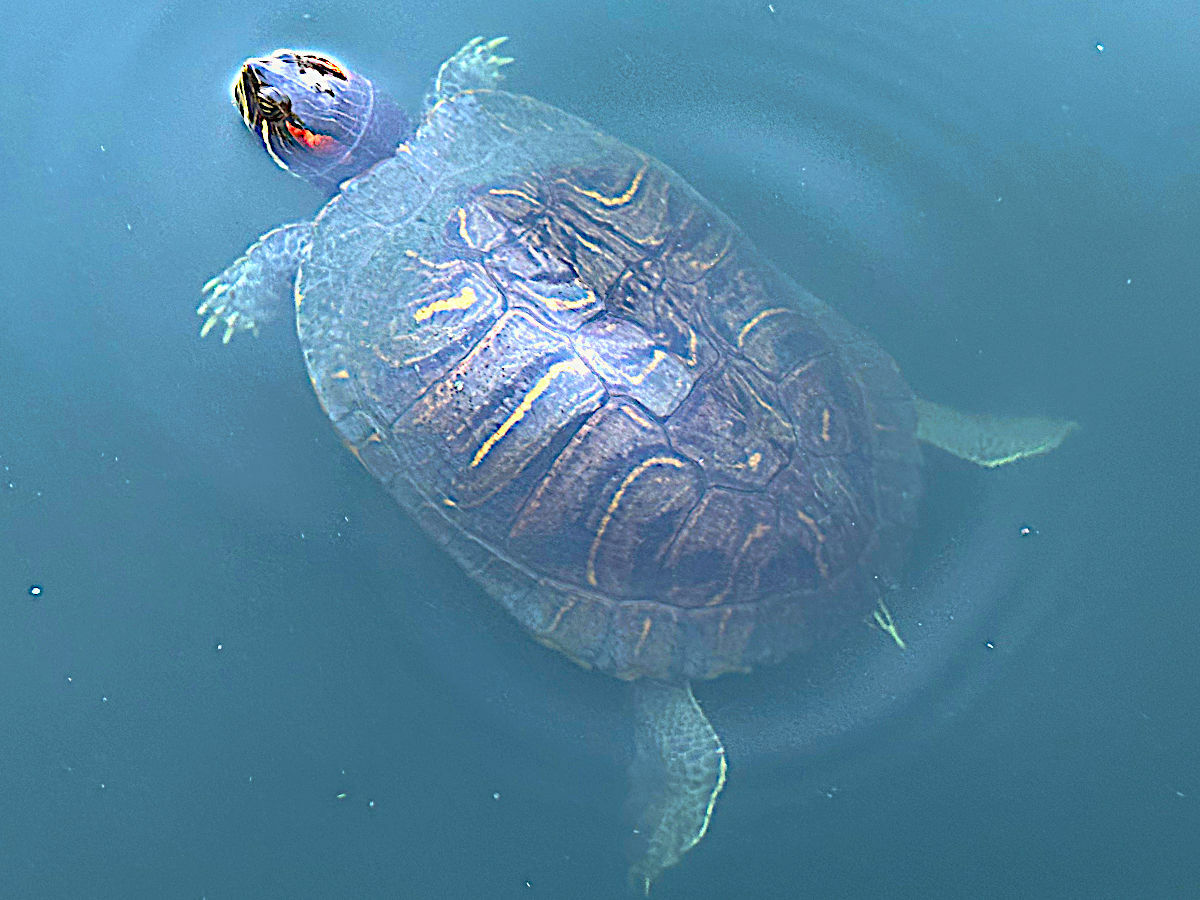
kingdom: Animalia
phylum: Chordata
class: Testudines
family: Emydidae
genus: Trachemys
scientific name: Trachemys scripta
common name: Slider
